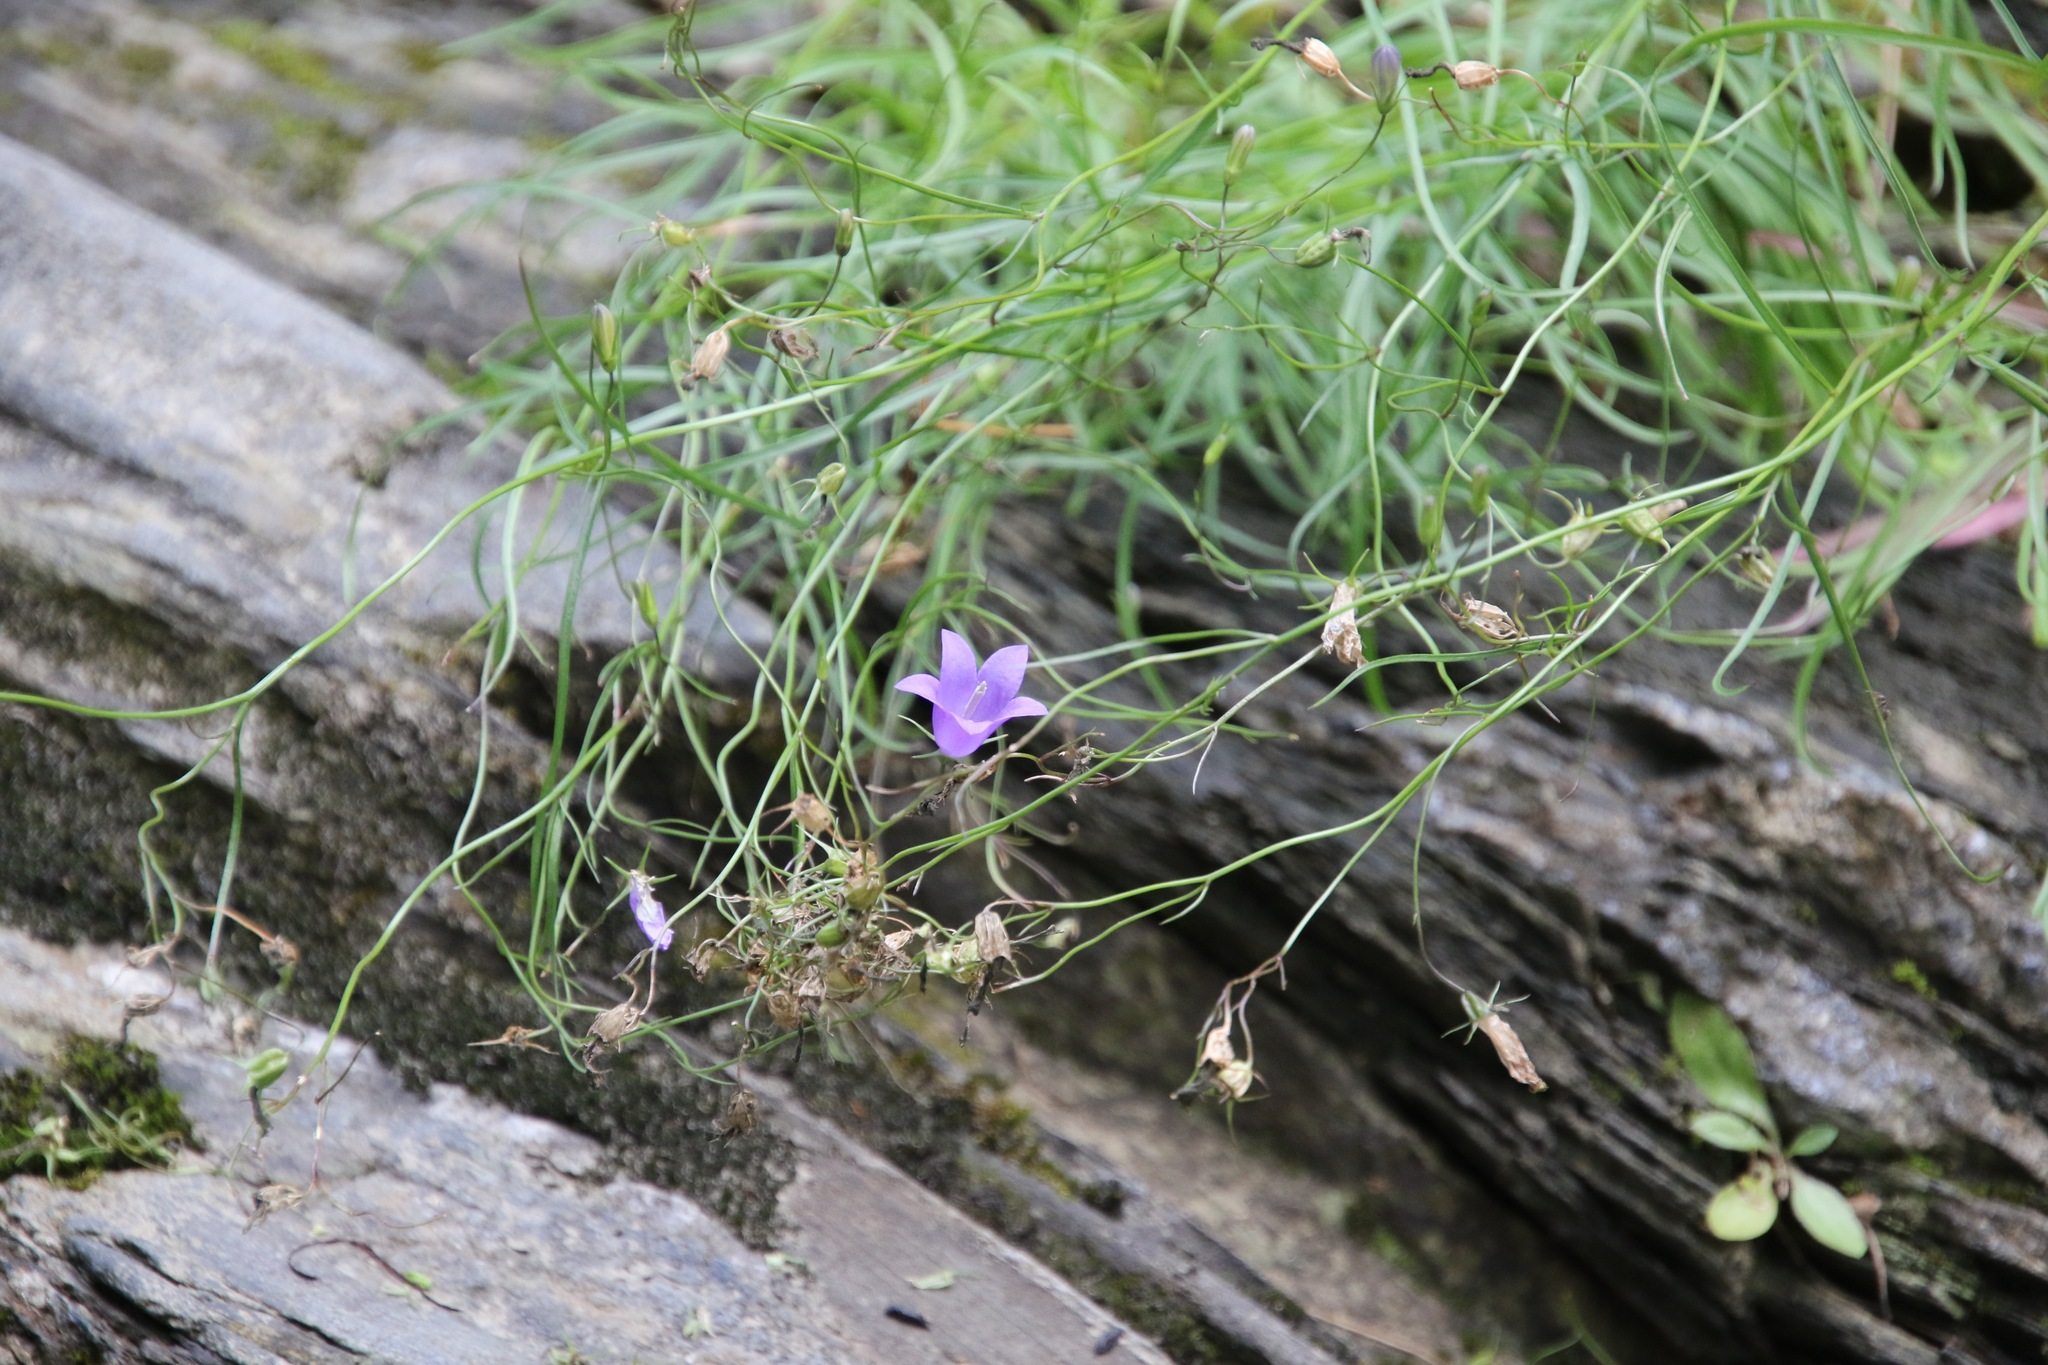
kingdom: Plantae
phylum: Tracheophyta
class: Magnoliopsida
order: Asterales
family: Campanulaceae
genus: Campanula
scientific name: Campanula intercedens
